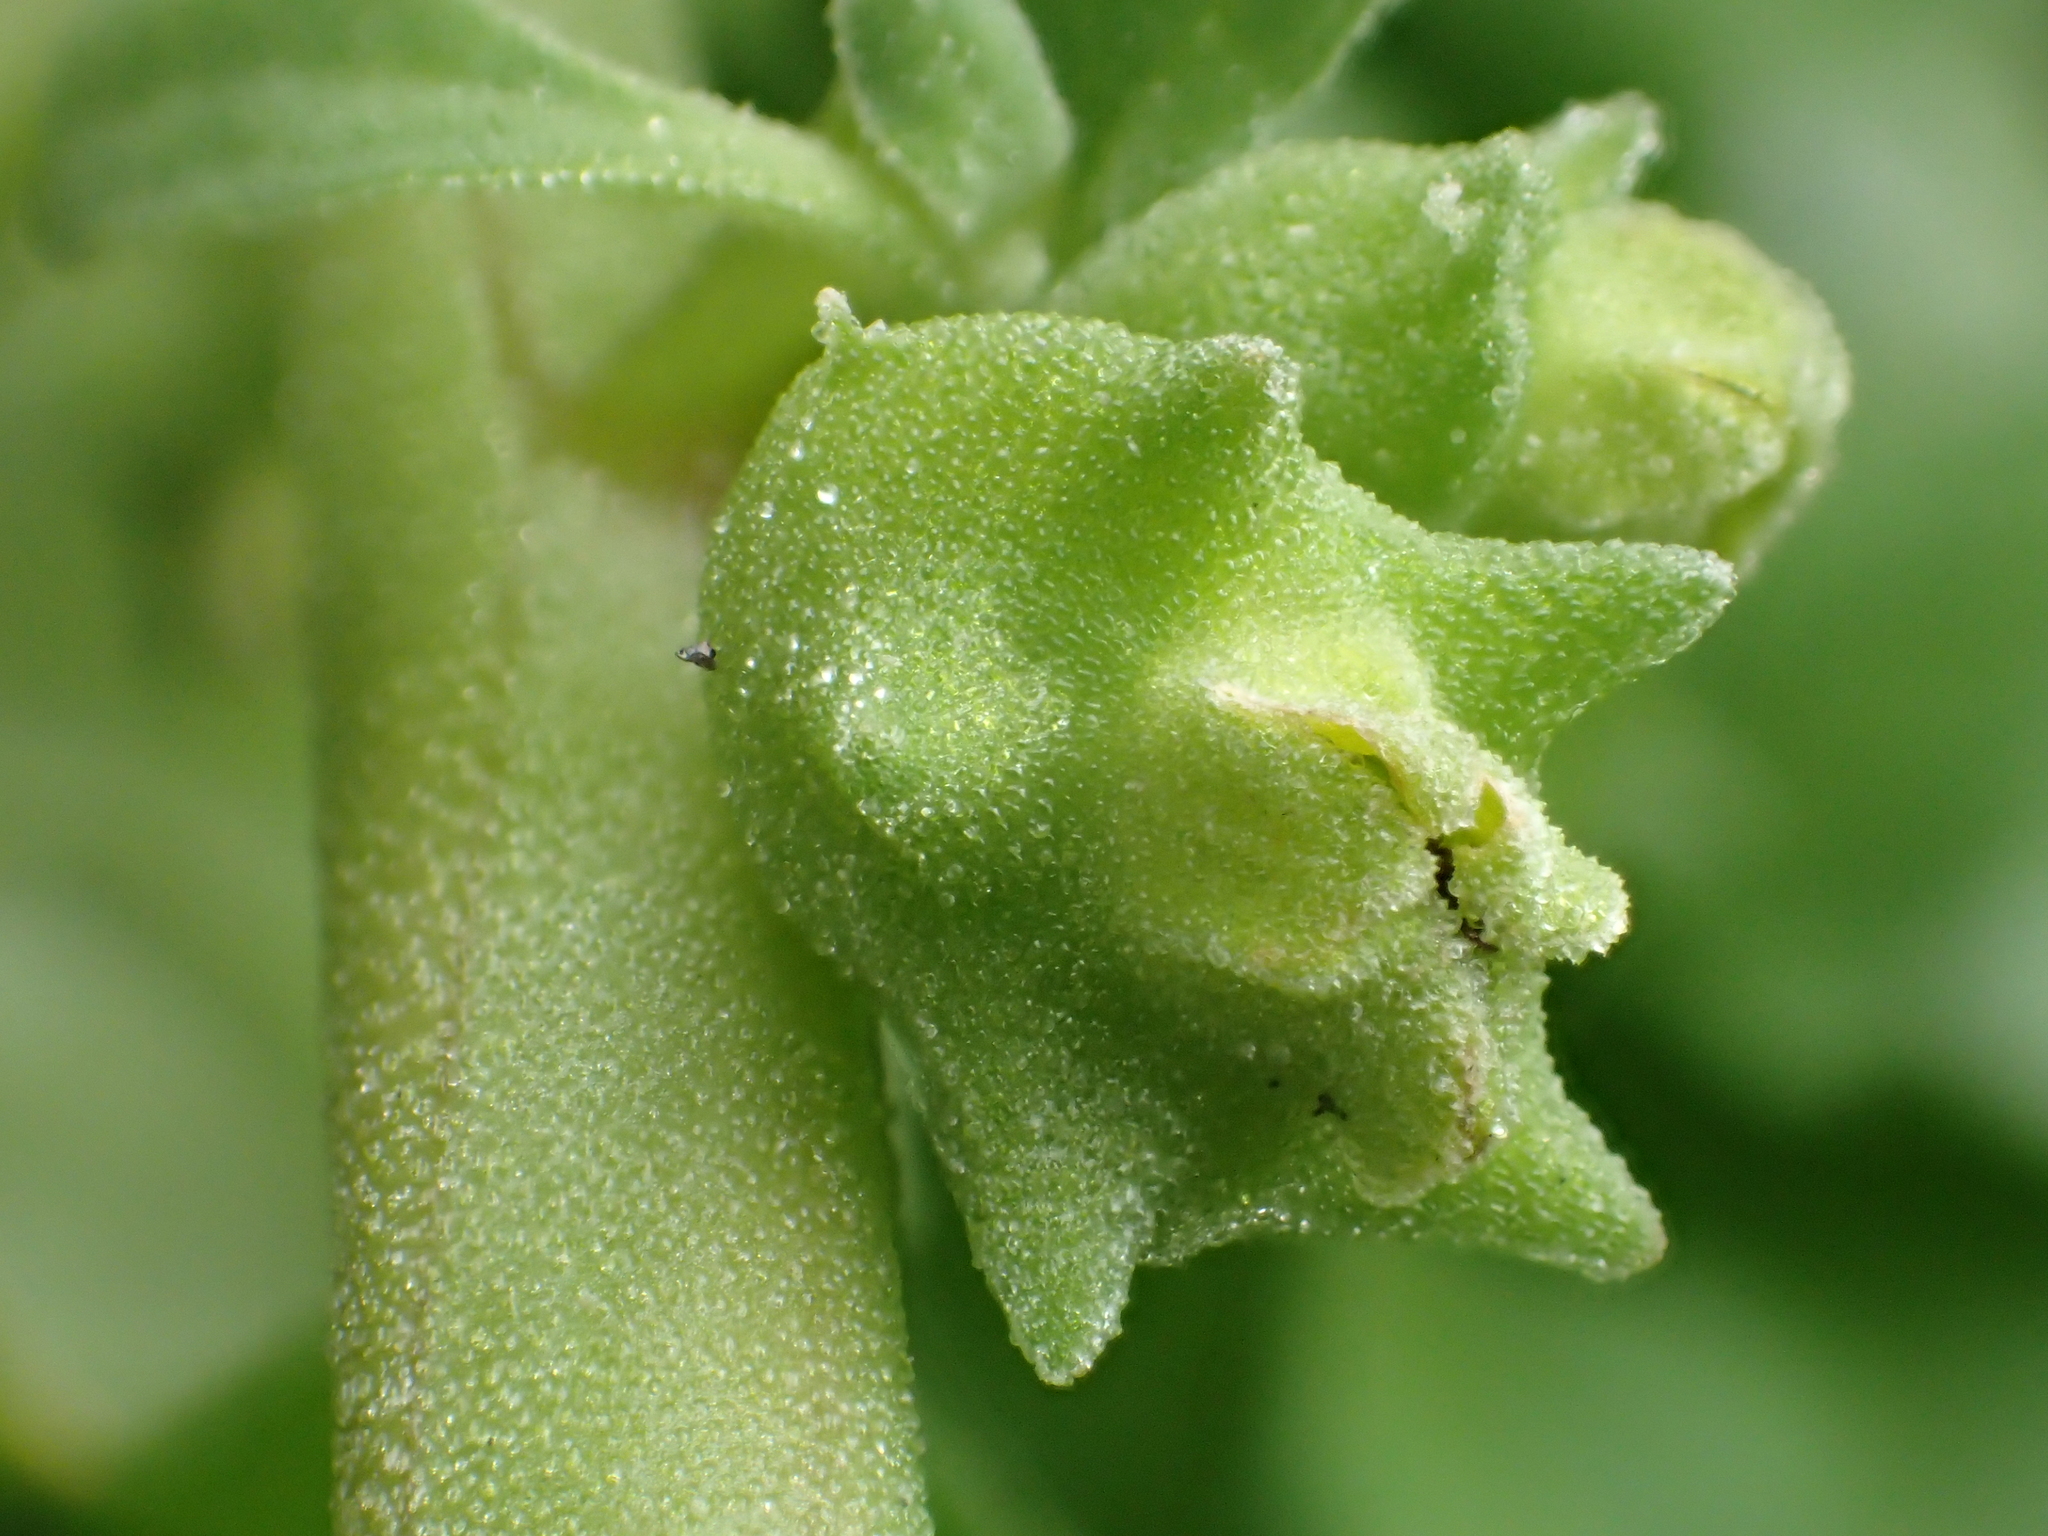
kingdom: Plantae
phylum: Tracheophyta
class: Magnoliopsida
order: Caryophyllales
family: Aizoaceae
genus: Tetragonia
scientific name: Tetragonia tetragonoides
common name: New zealand-spinach
